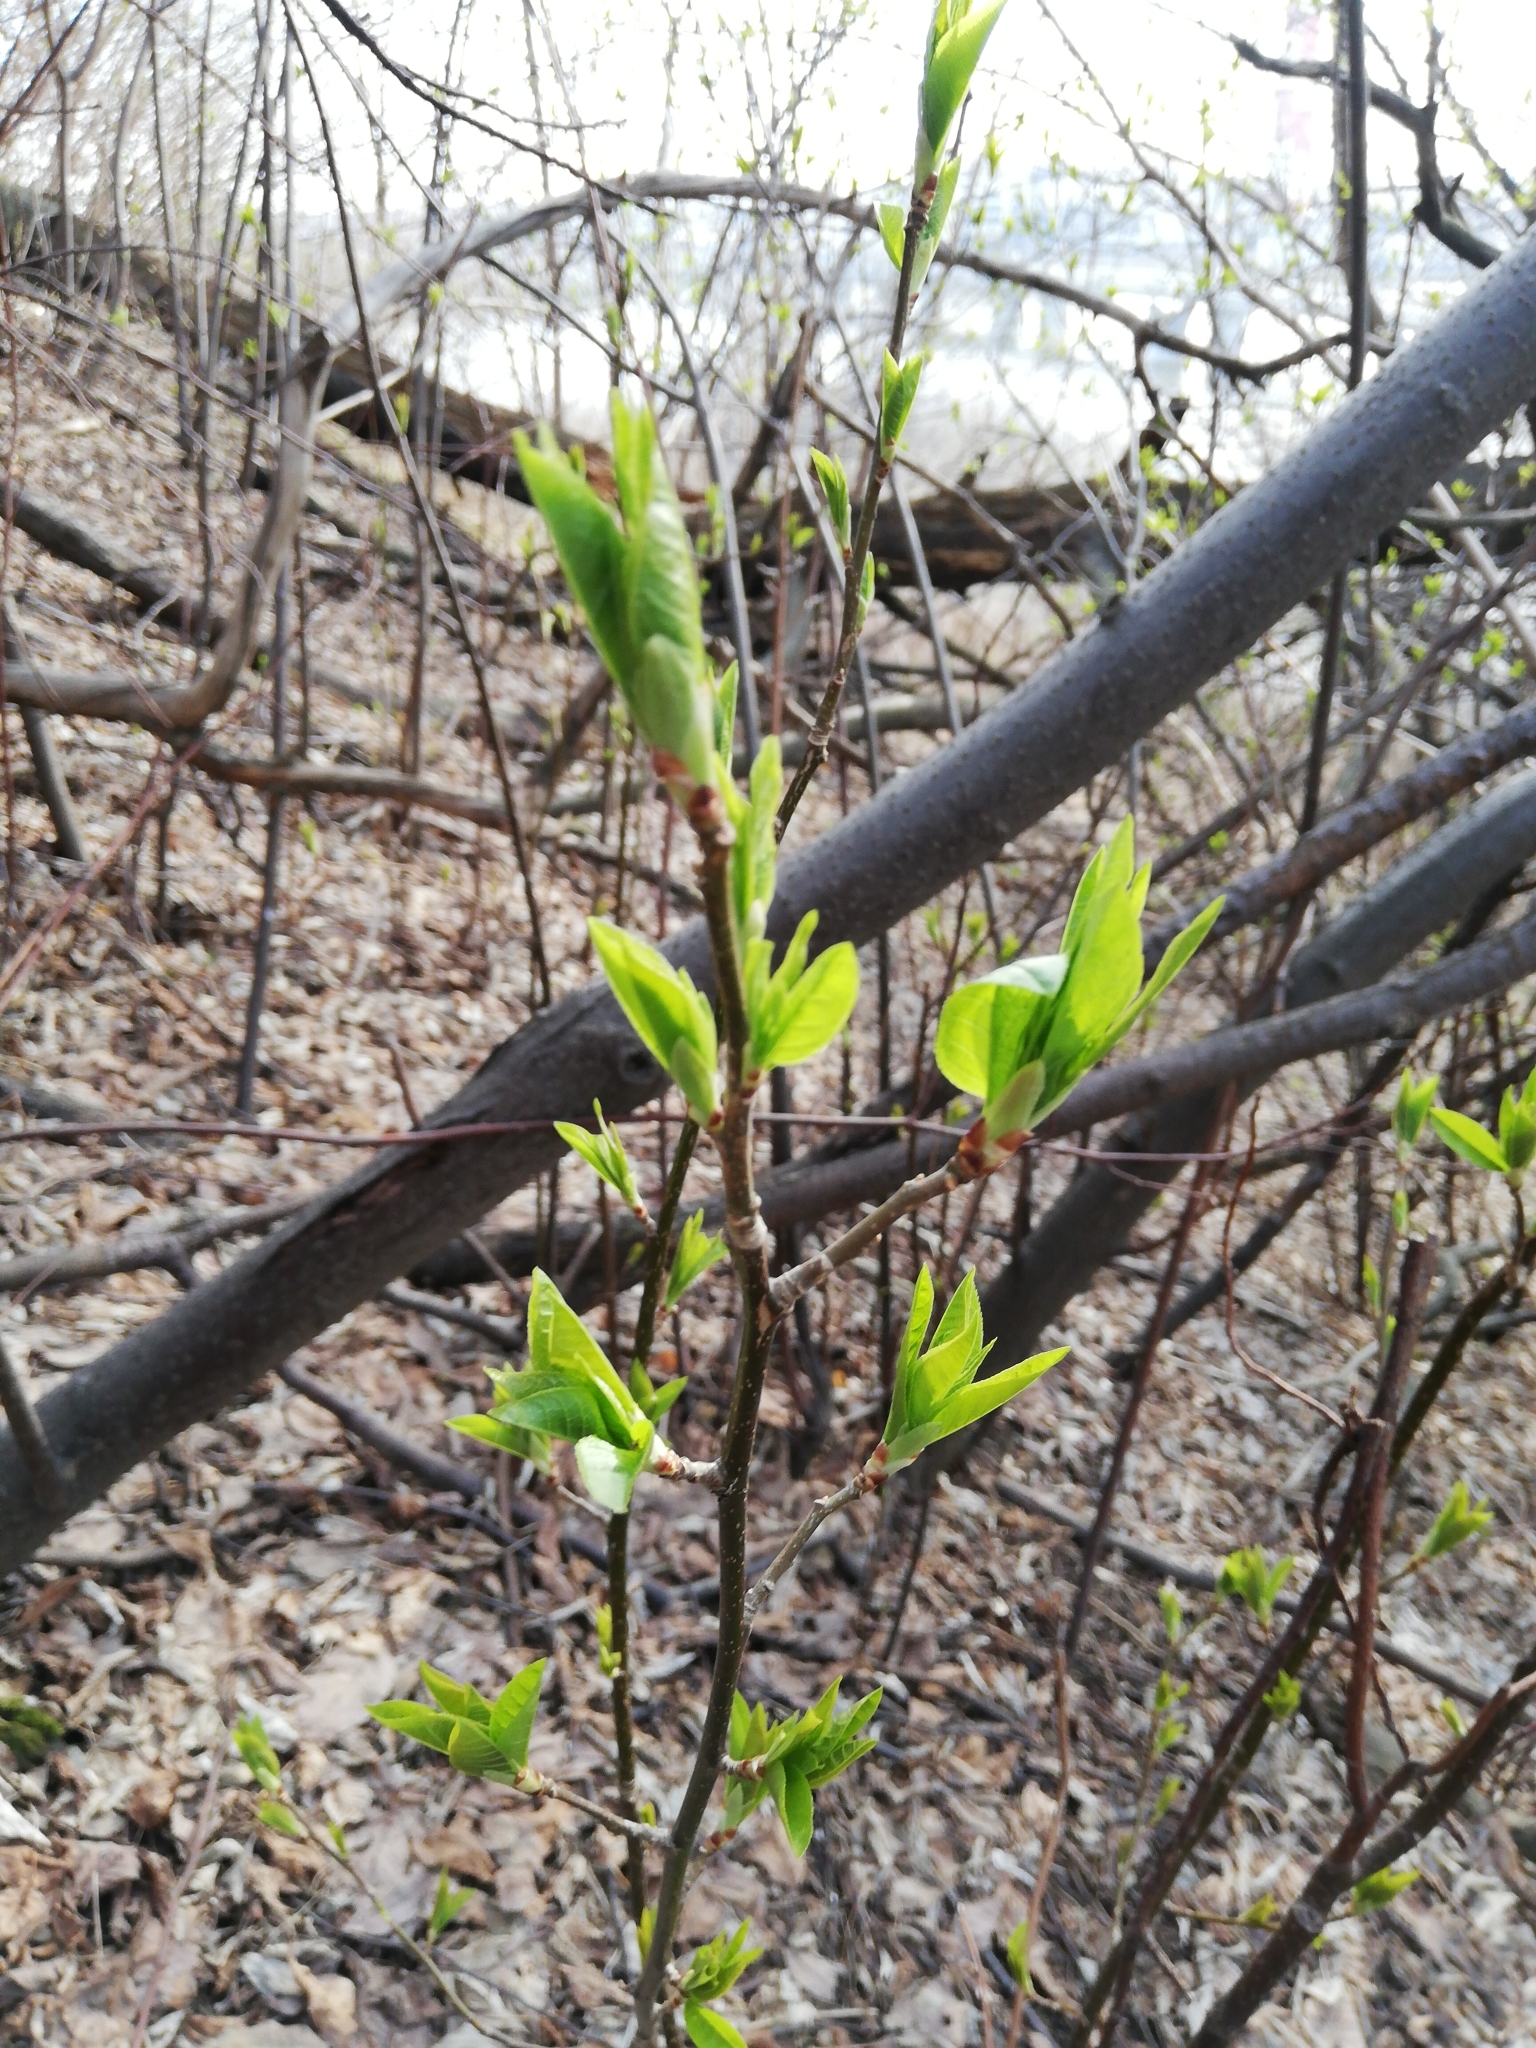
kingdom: Plantae
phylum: Tracheophyta
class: Magnoliopsida
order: Rosales
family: Rosaceae
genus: Prunus
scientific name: Prunus padus
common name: Bird cherry
